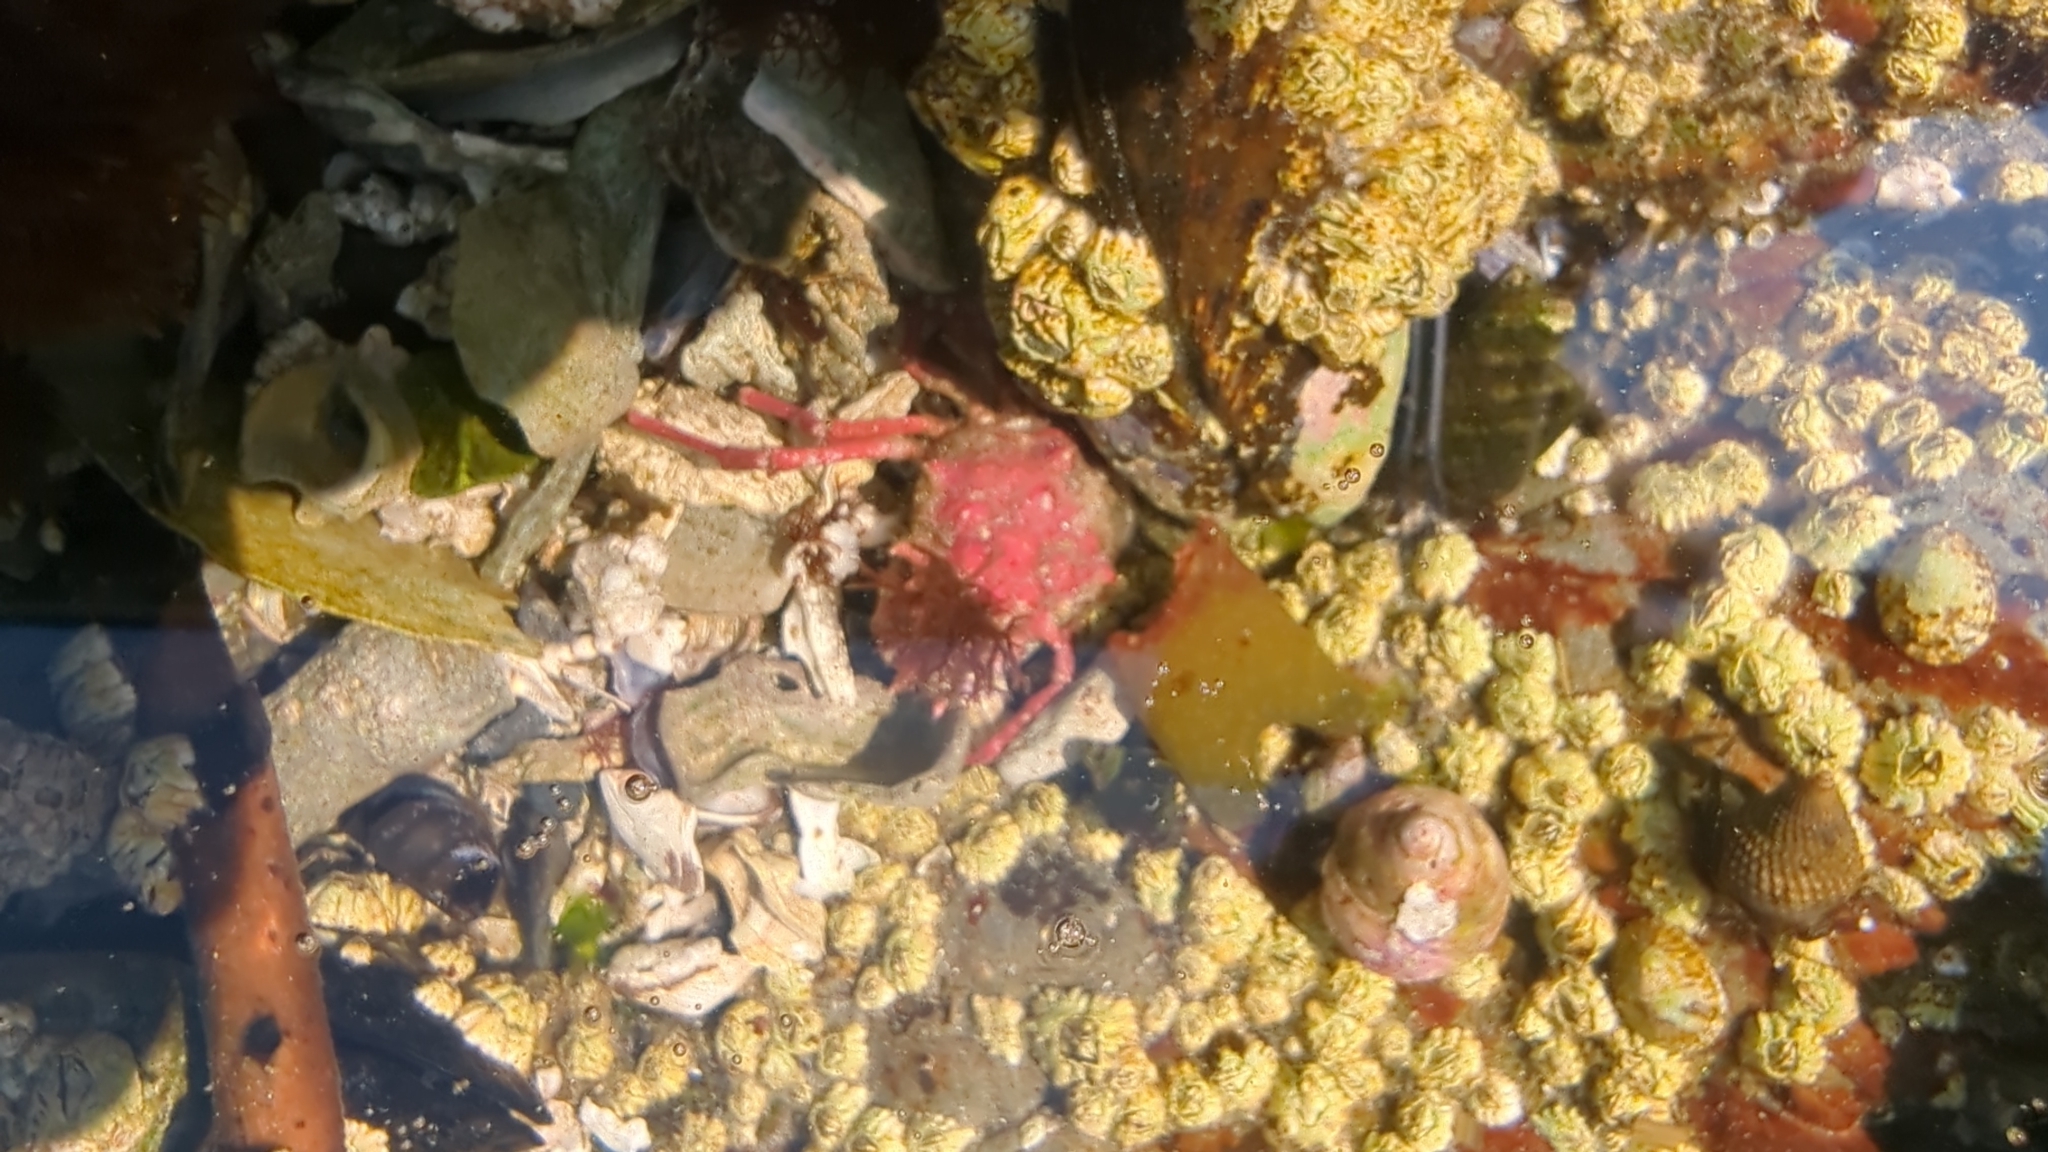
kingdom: Animalia
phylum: Arthropoda
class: Malacostraca
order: Decapoda
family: Epialtidae
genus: Pugettia
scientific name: Pugettia richii
